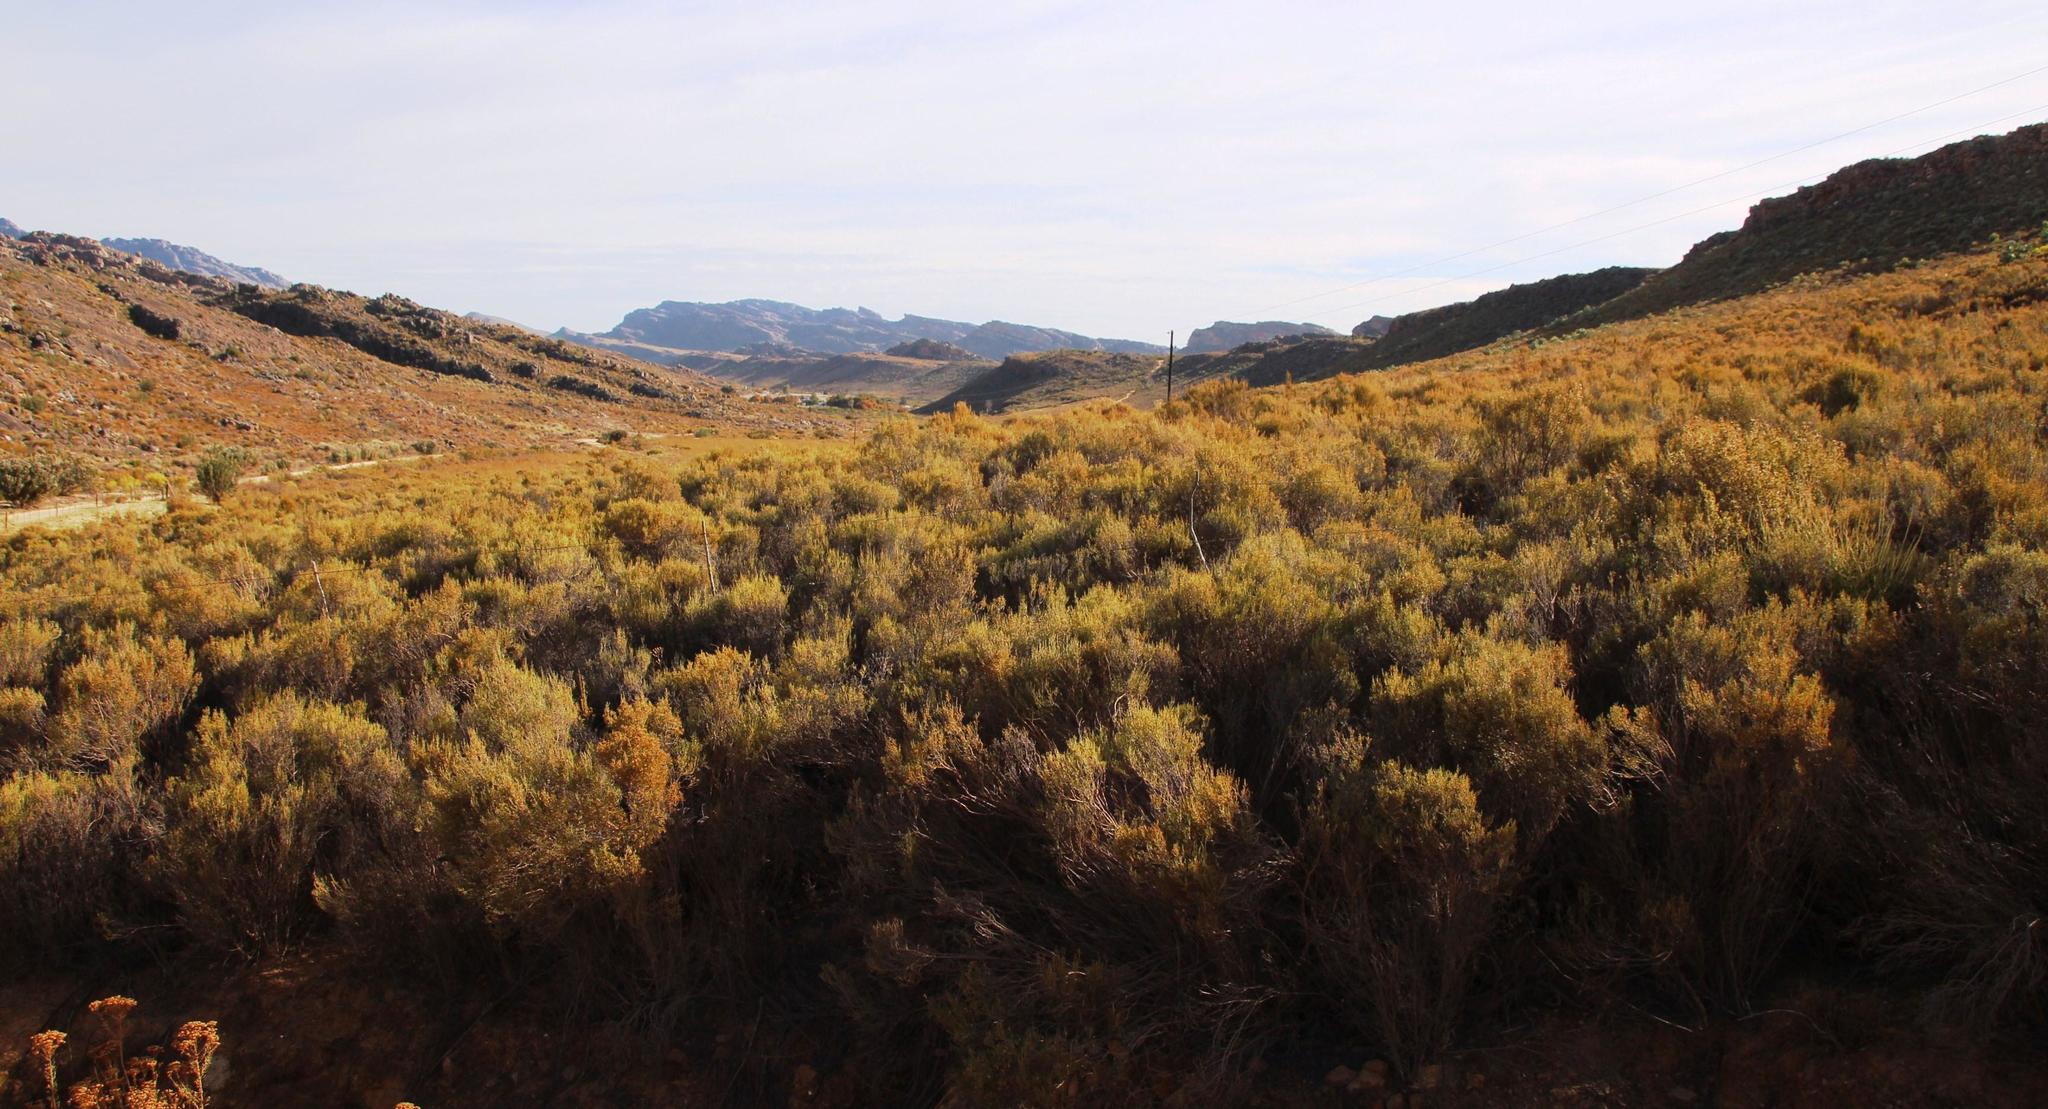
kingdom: Plantae
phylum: Tracheophyta
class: Magnoliopsida
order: Asterales
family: Asteraceae
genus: Dicerothamnus
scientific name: Dicerothamnus rhinocerotis
